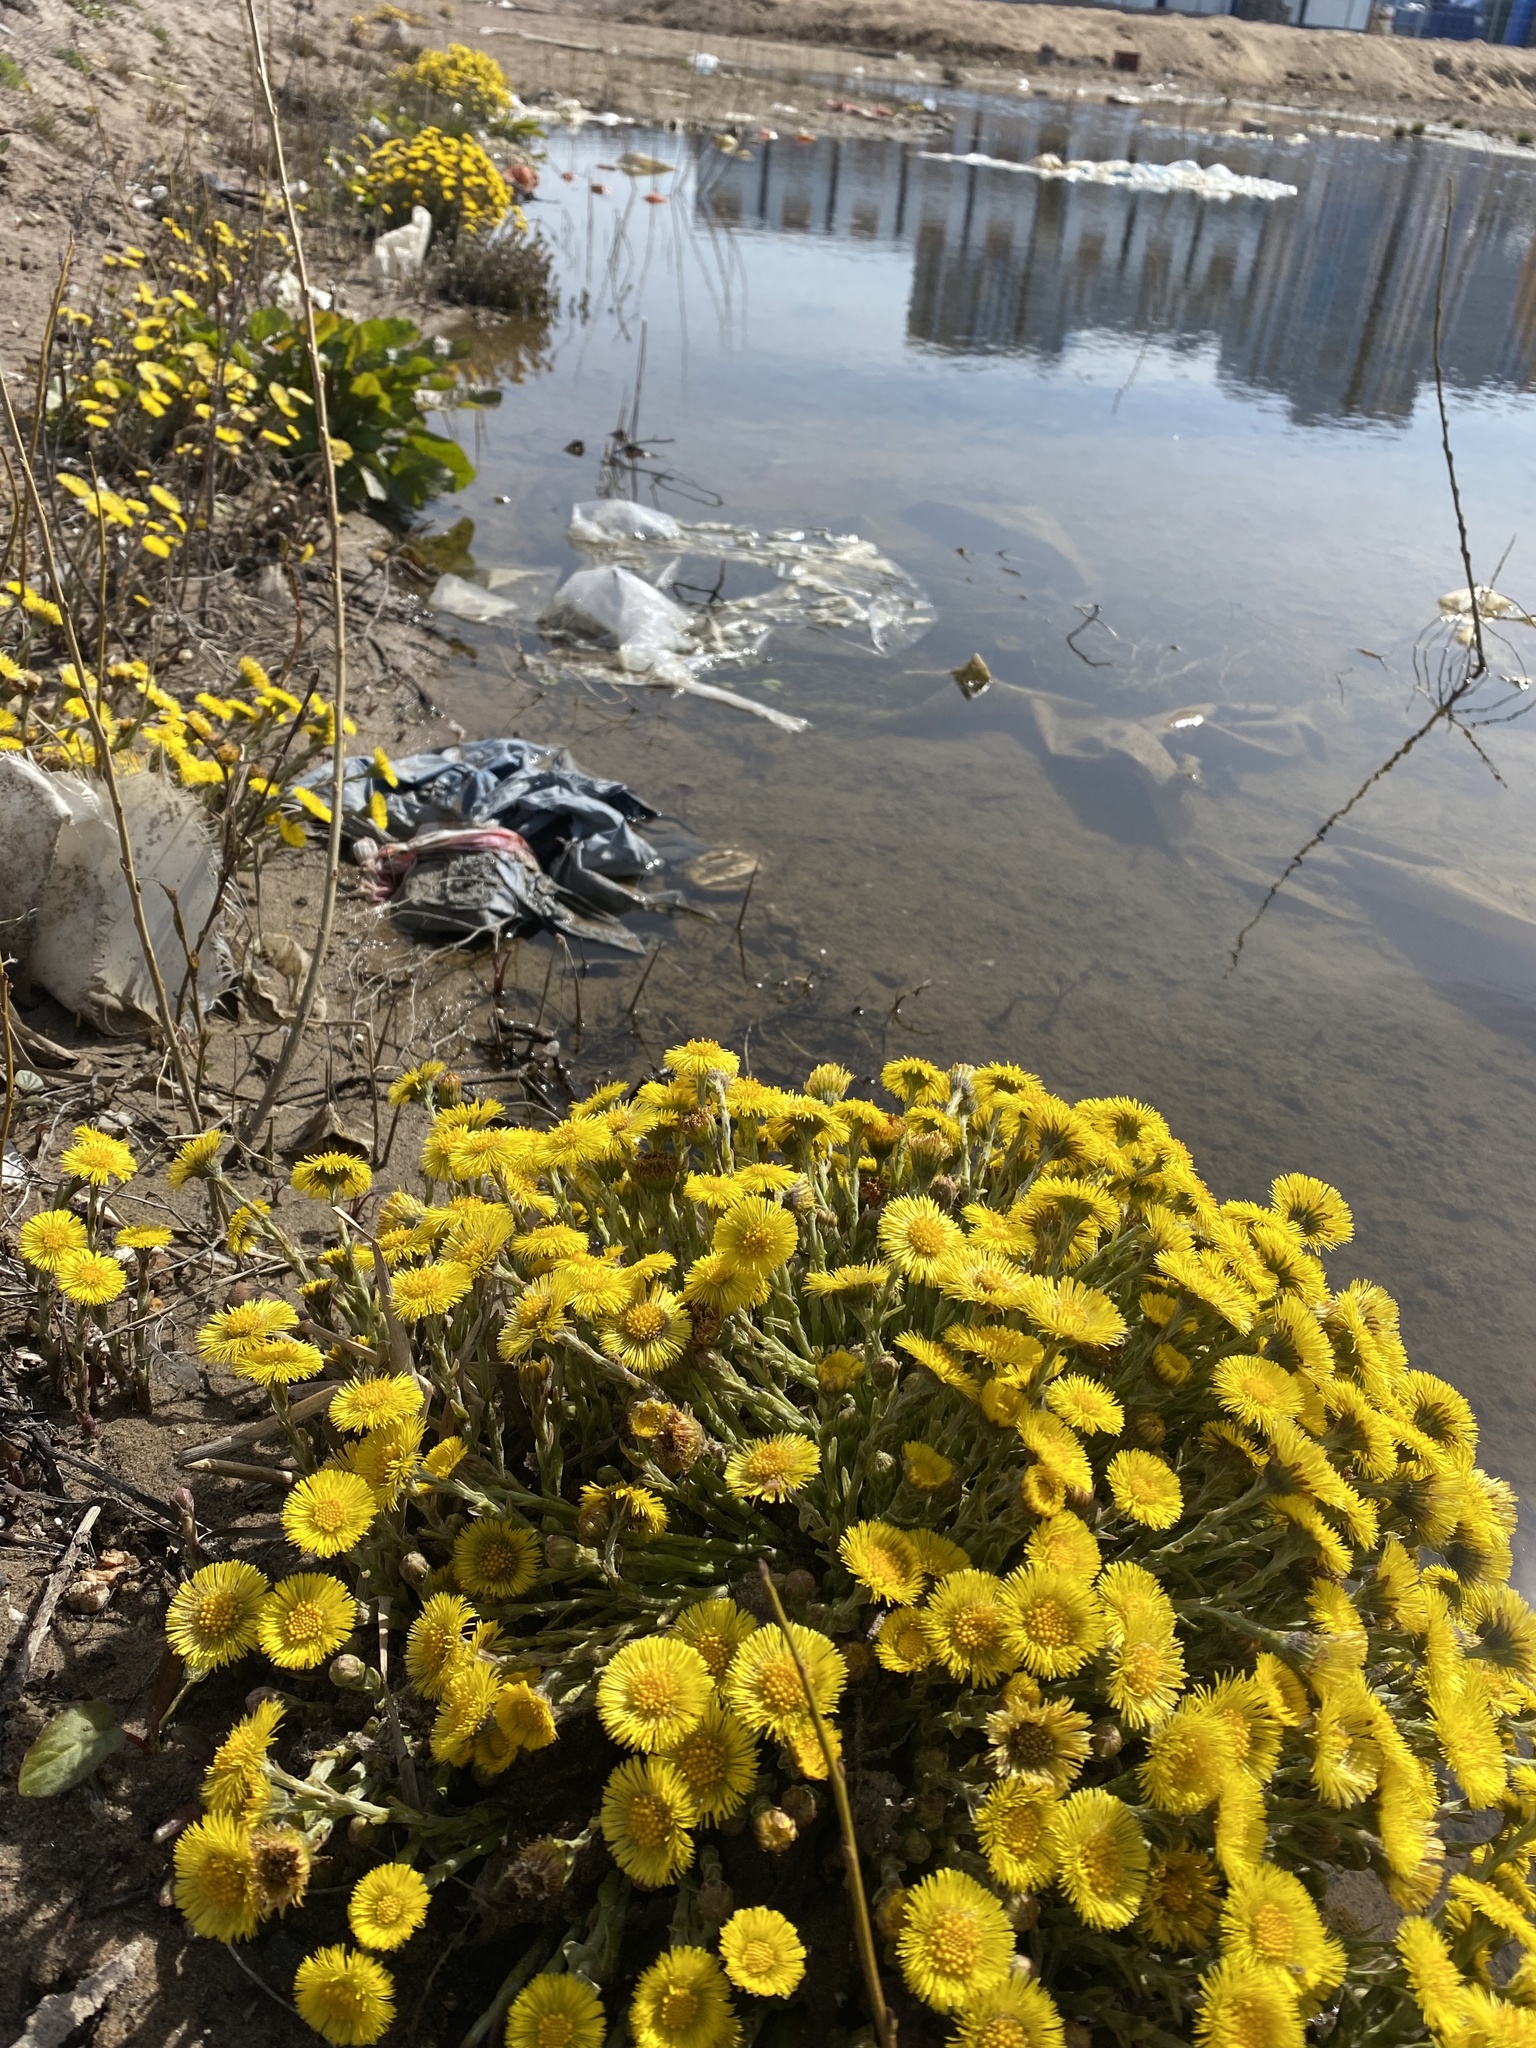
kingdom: Plantae
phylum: Tracheophyta
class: Magnoliopsida
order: Asterales
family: Asteraceae
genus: Tussilago
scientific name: Tussilago farfara
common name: Coltsfoot
